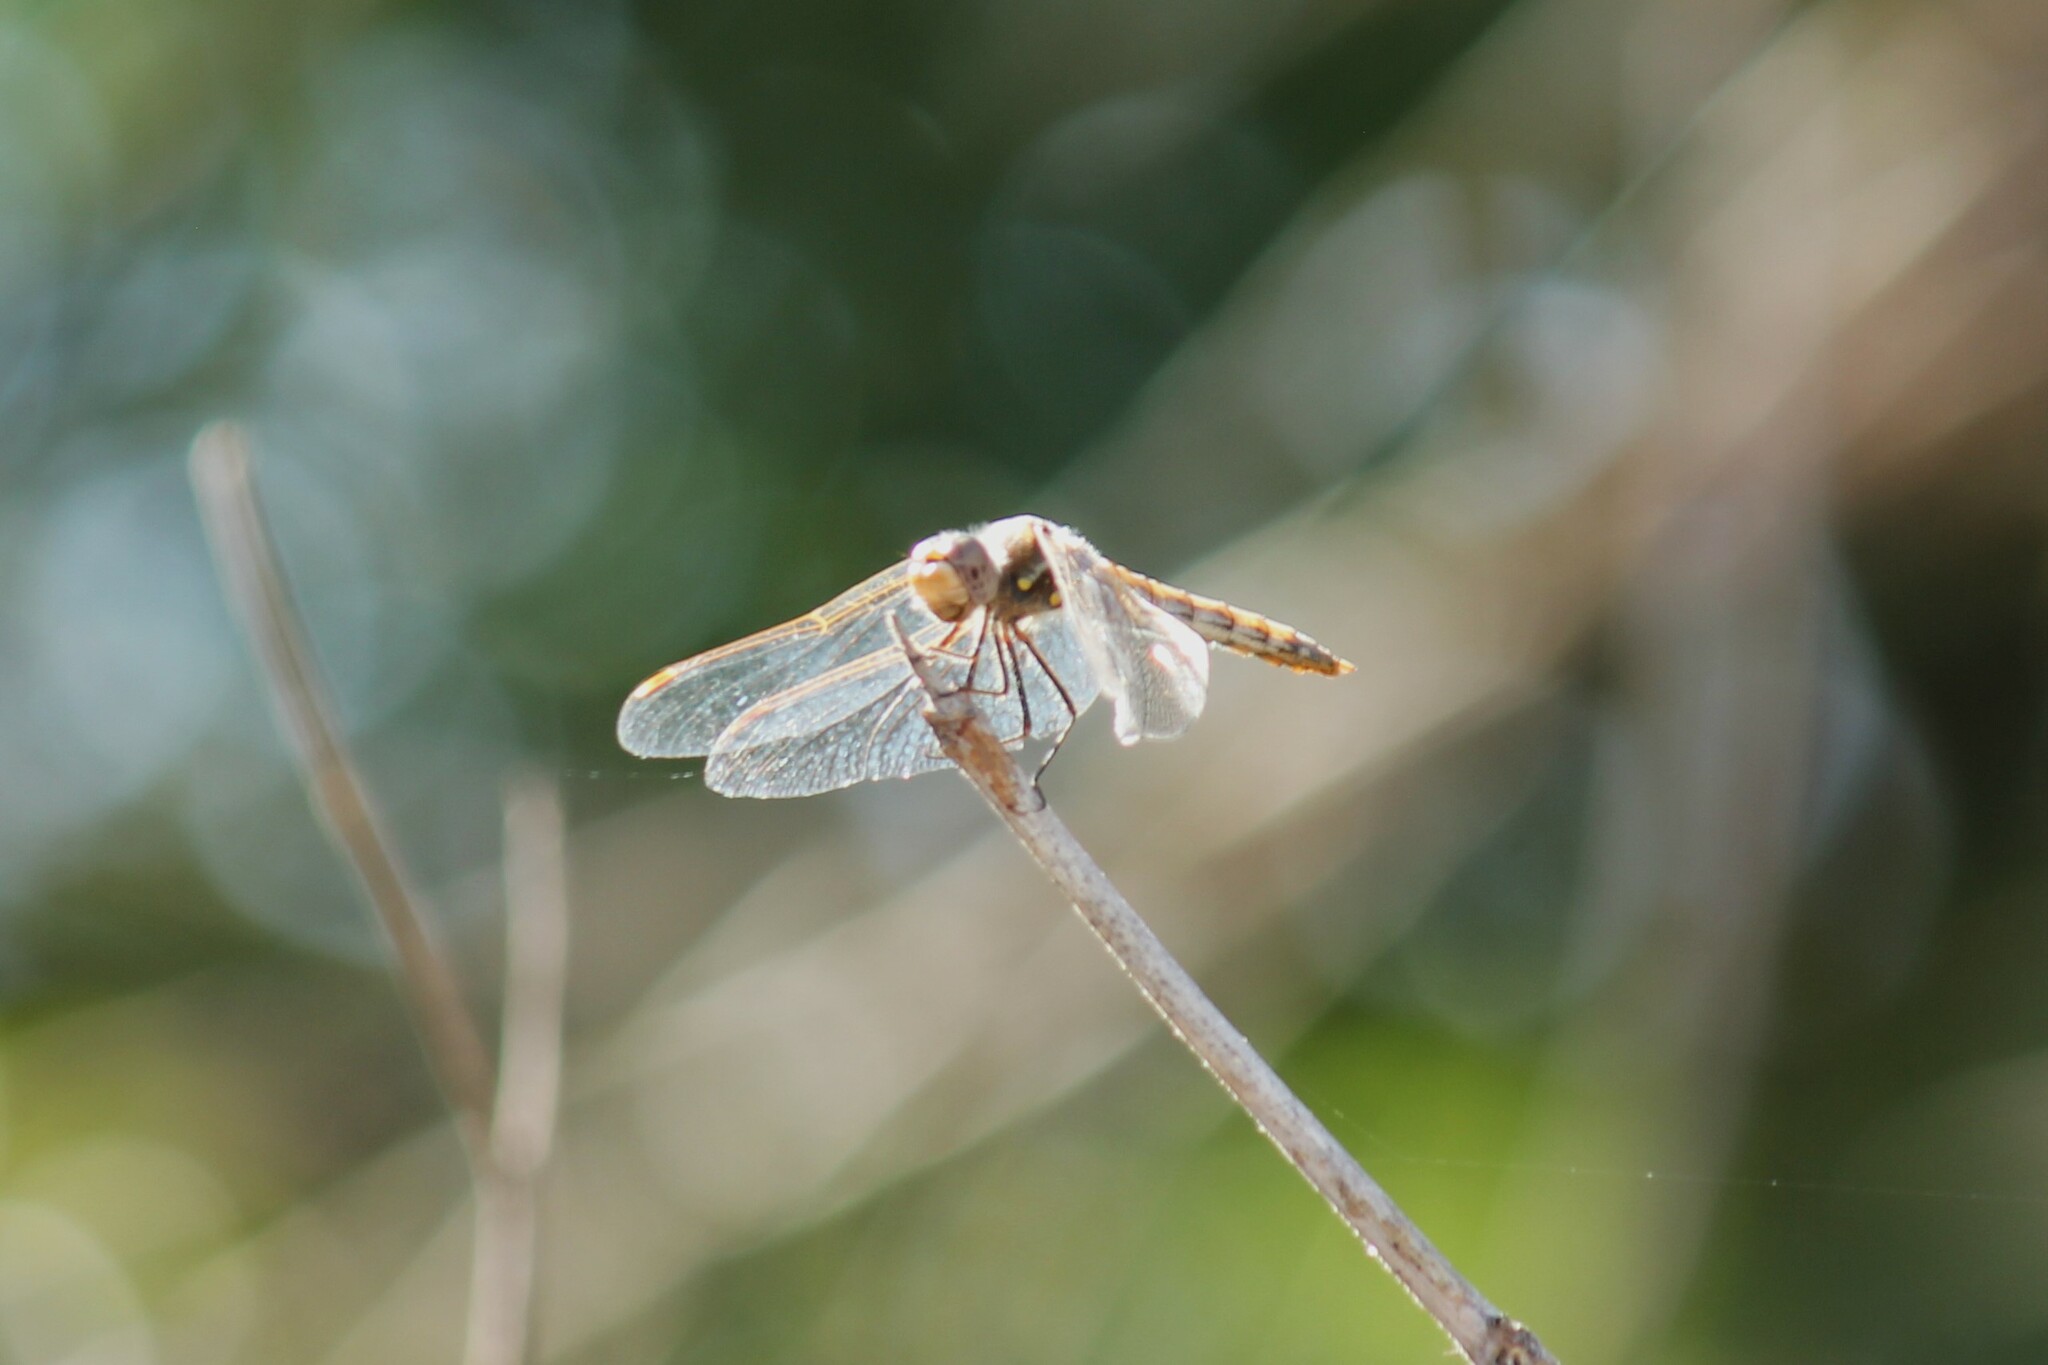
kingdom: Animalia
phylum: Arthropoda
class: Insecta
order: Odonata
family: Libellulidae
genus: Sympetrum
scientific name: Sympetrum corruptum
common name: Variegated meadowhawk
